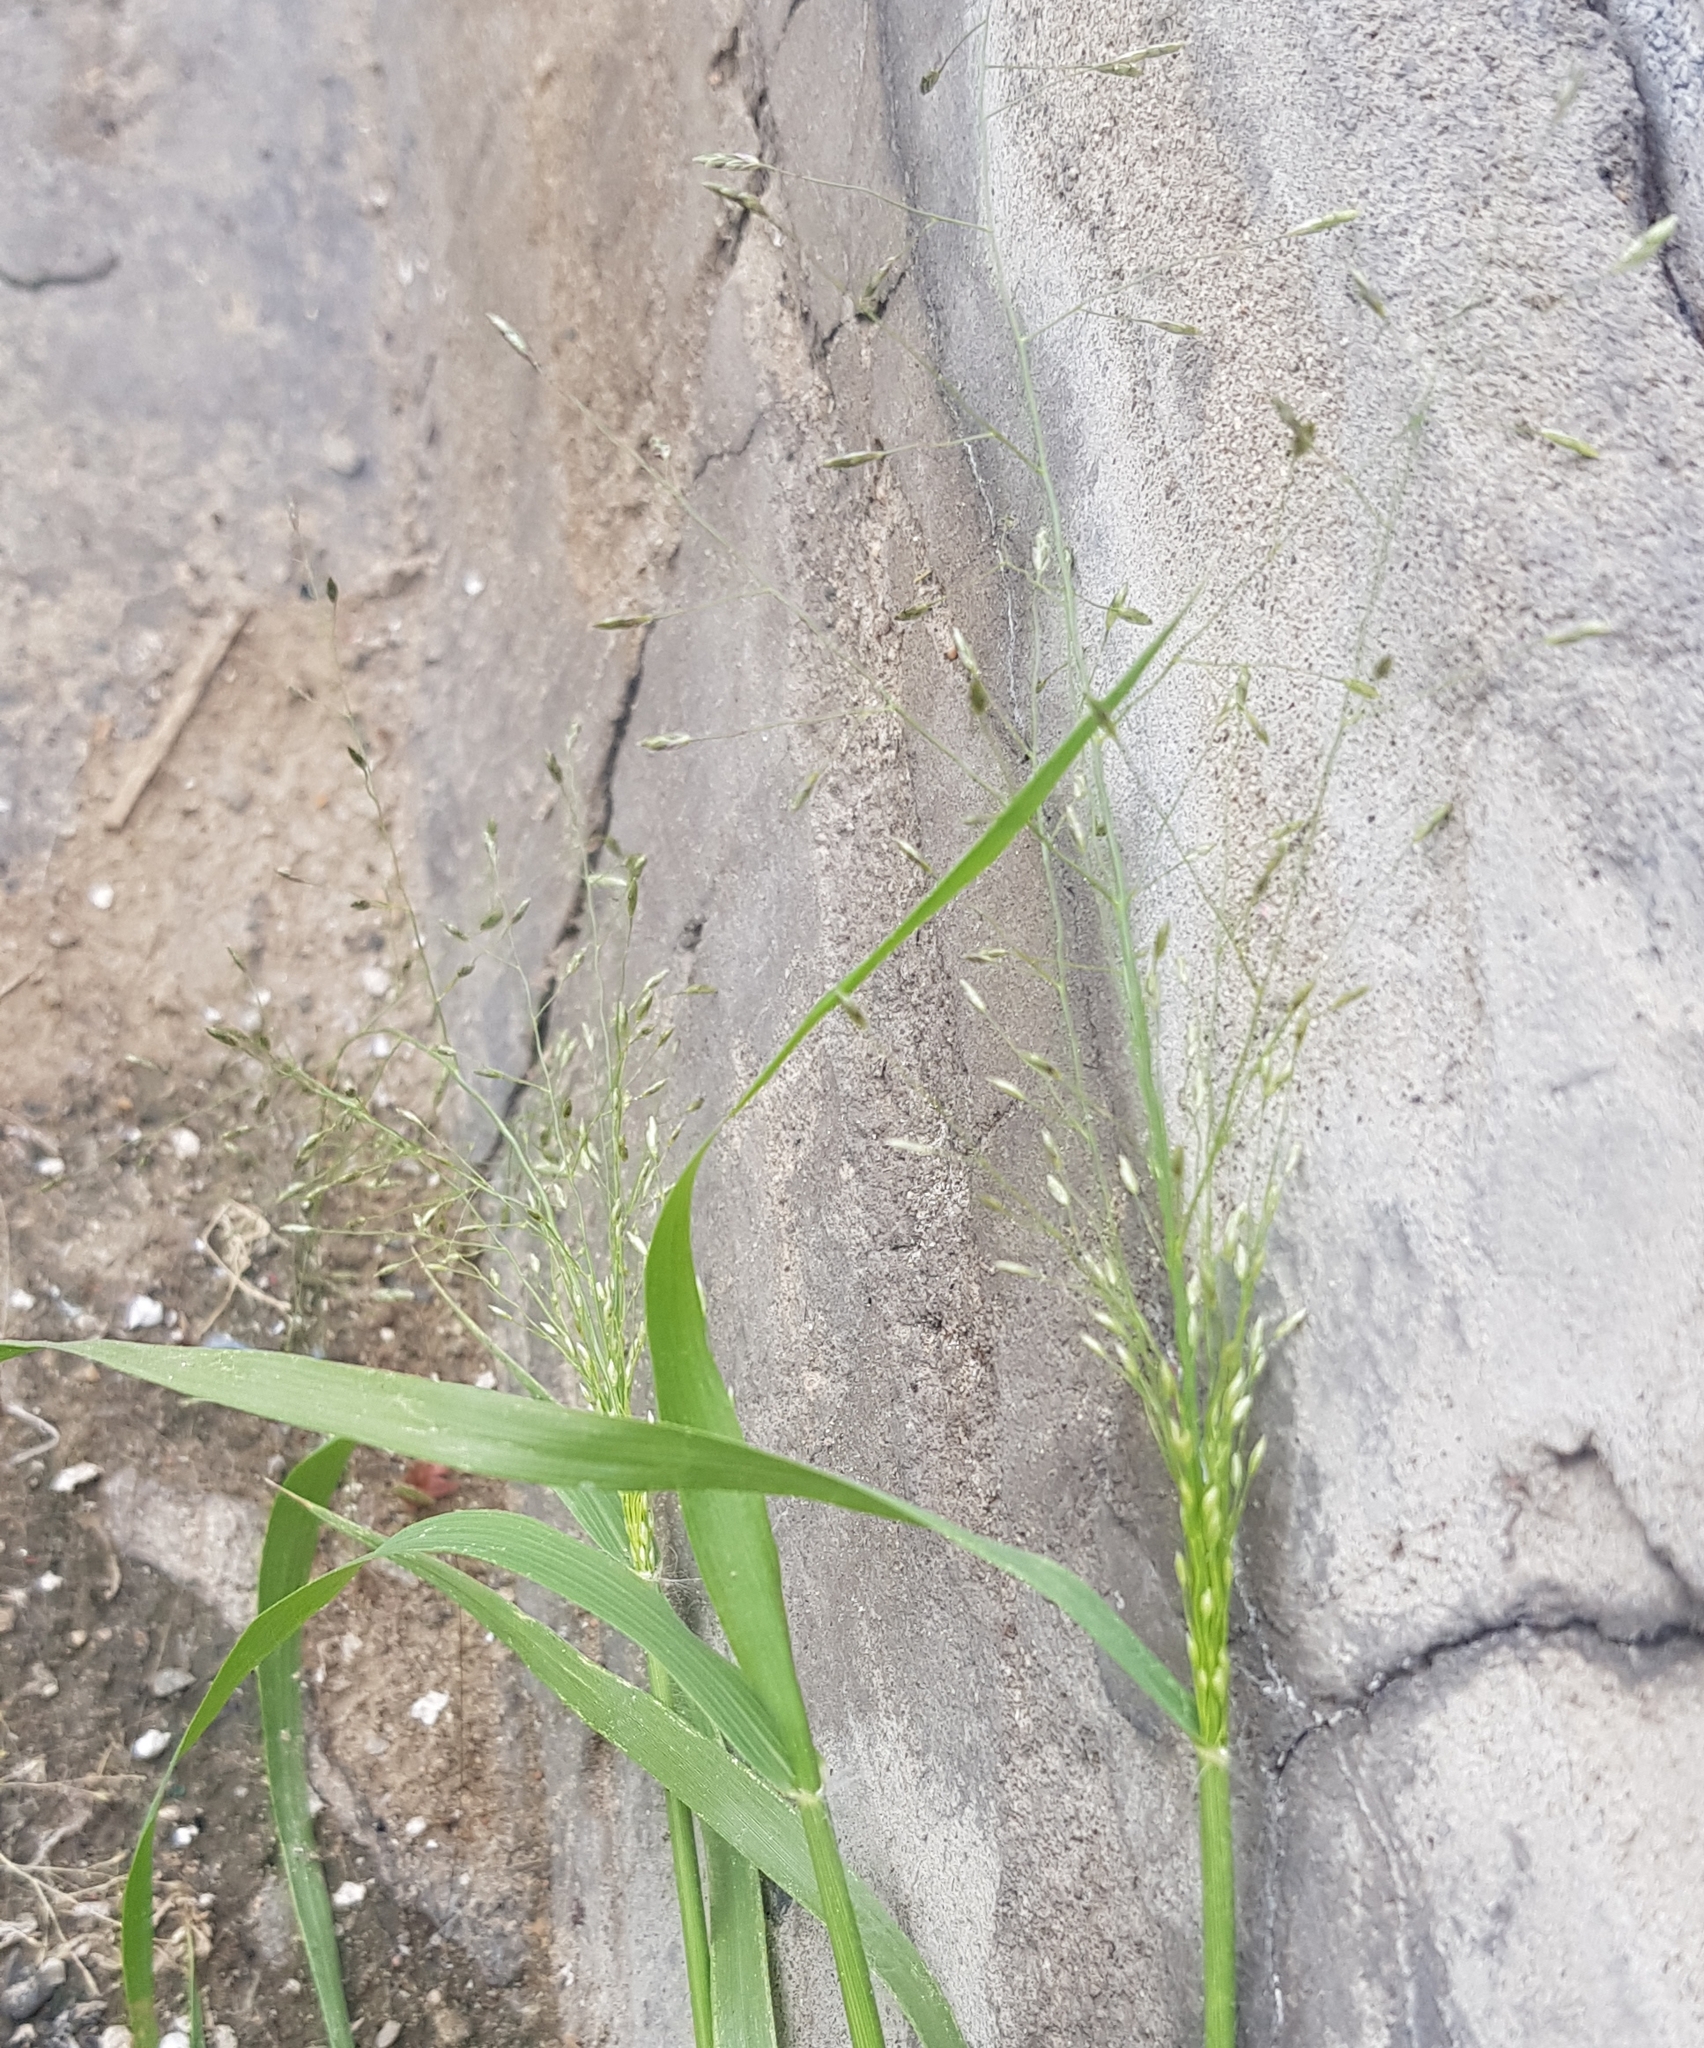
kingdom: Plantae
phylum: Tracheophyta
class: Liliopsida
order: Poales
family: Poaceae
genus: Eragrostis
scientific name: Eragrostis pilosa
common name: Indian lovegrass
